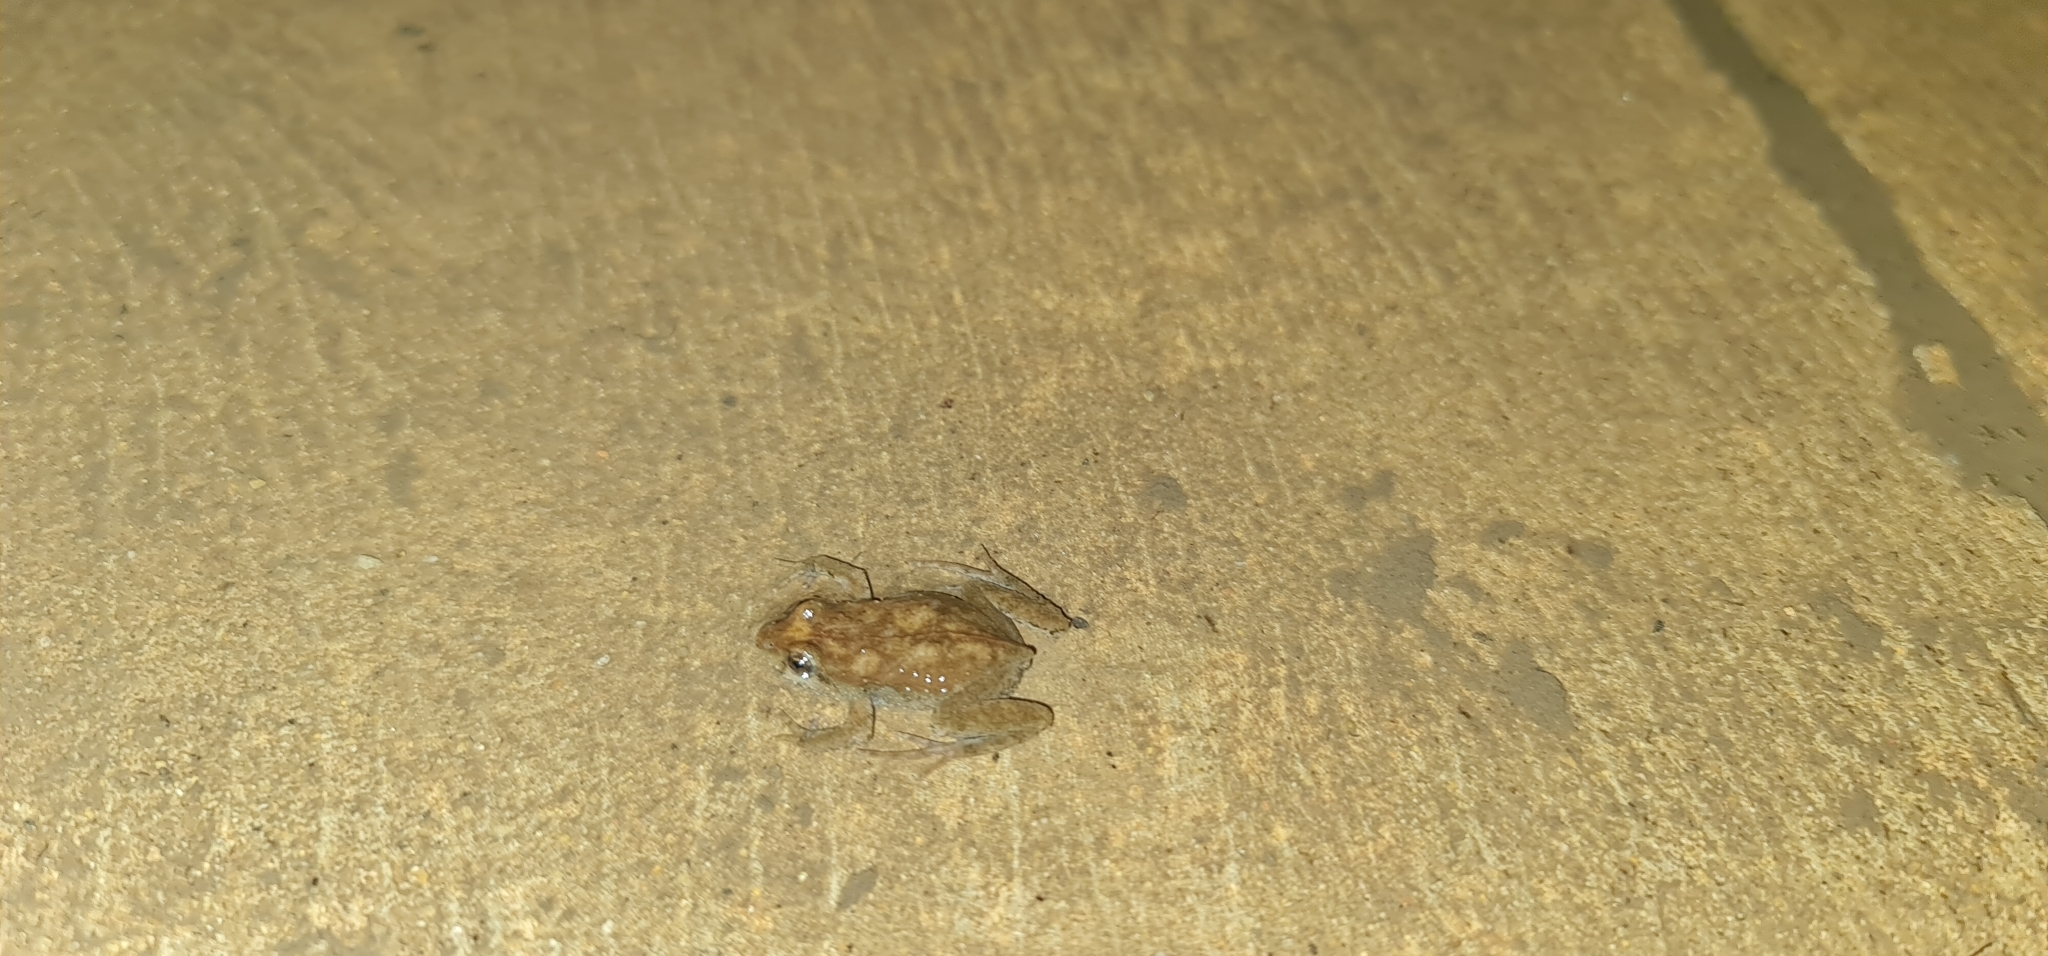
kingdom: Animalia
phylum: Chordata
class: Amphibia
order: Anura
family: Myobatrachidae
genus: Crinia
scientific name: Crinia signifera
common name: Brown froglet
